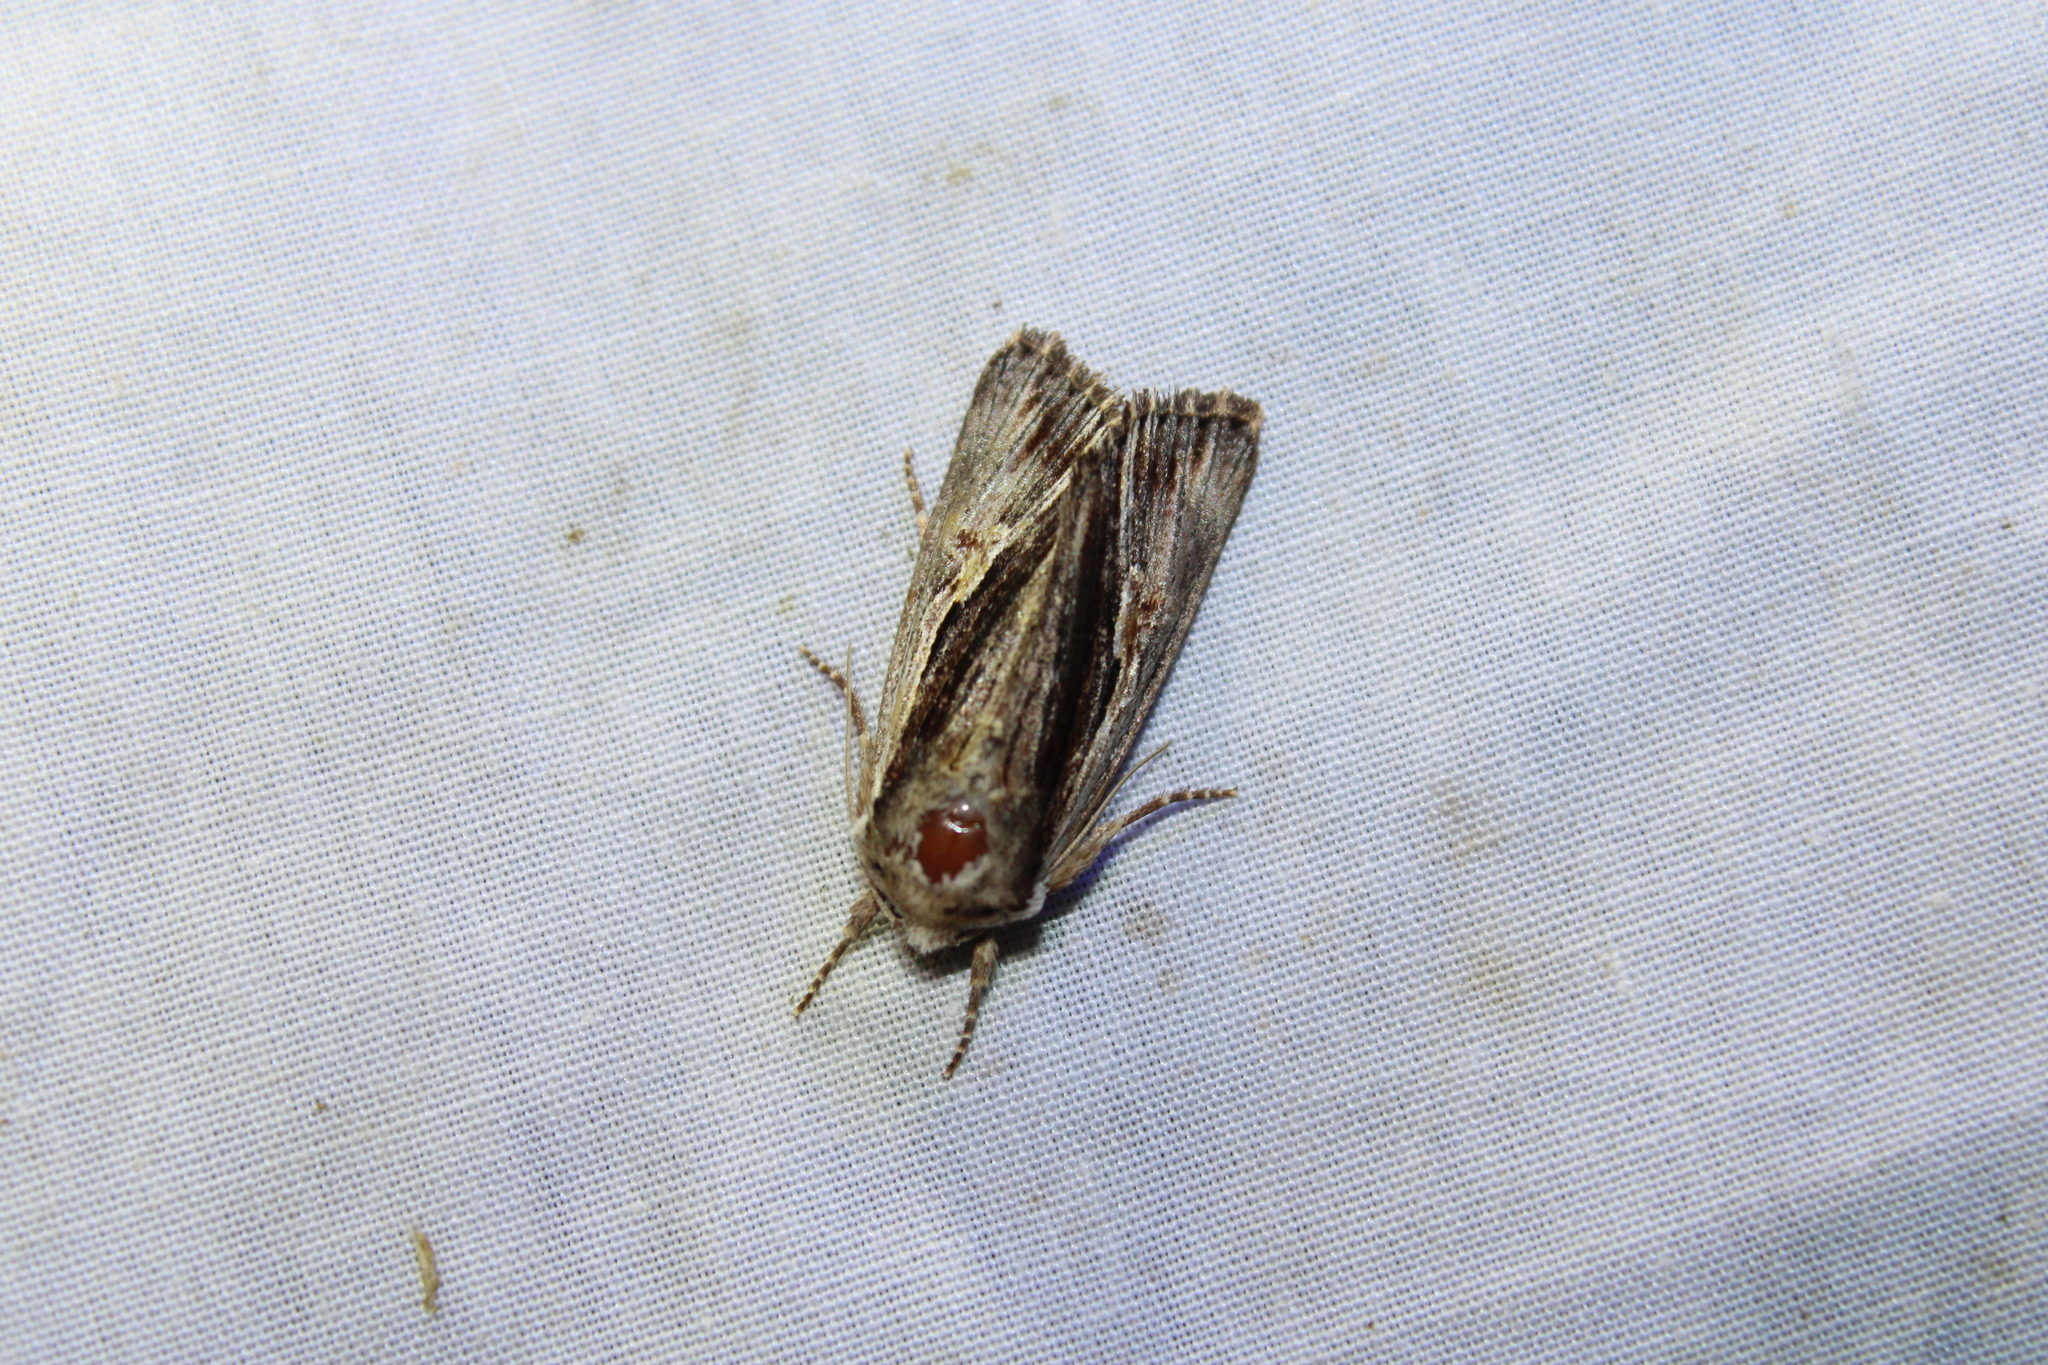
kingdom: Animalia
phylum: Arthropoda
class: Insecta
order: Lepidoptera
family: Noctuidae
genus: Achatia
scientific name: Achatia evicta
